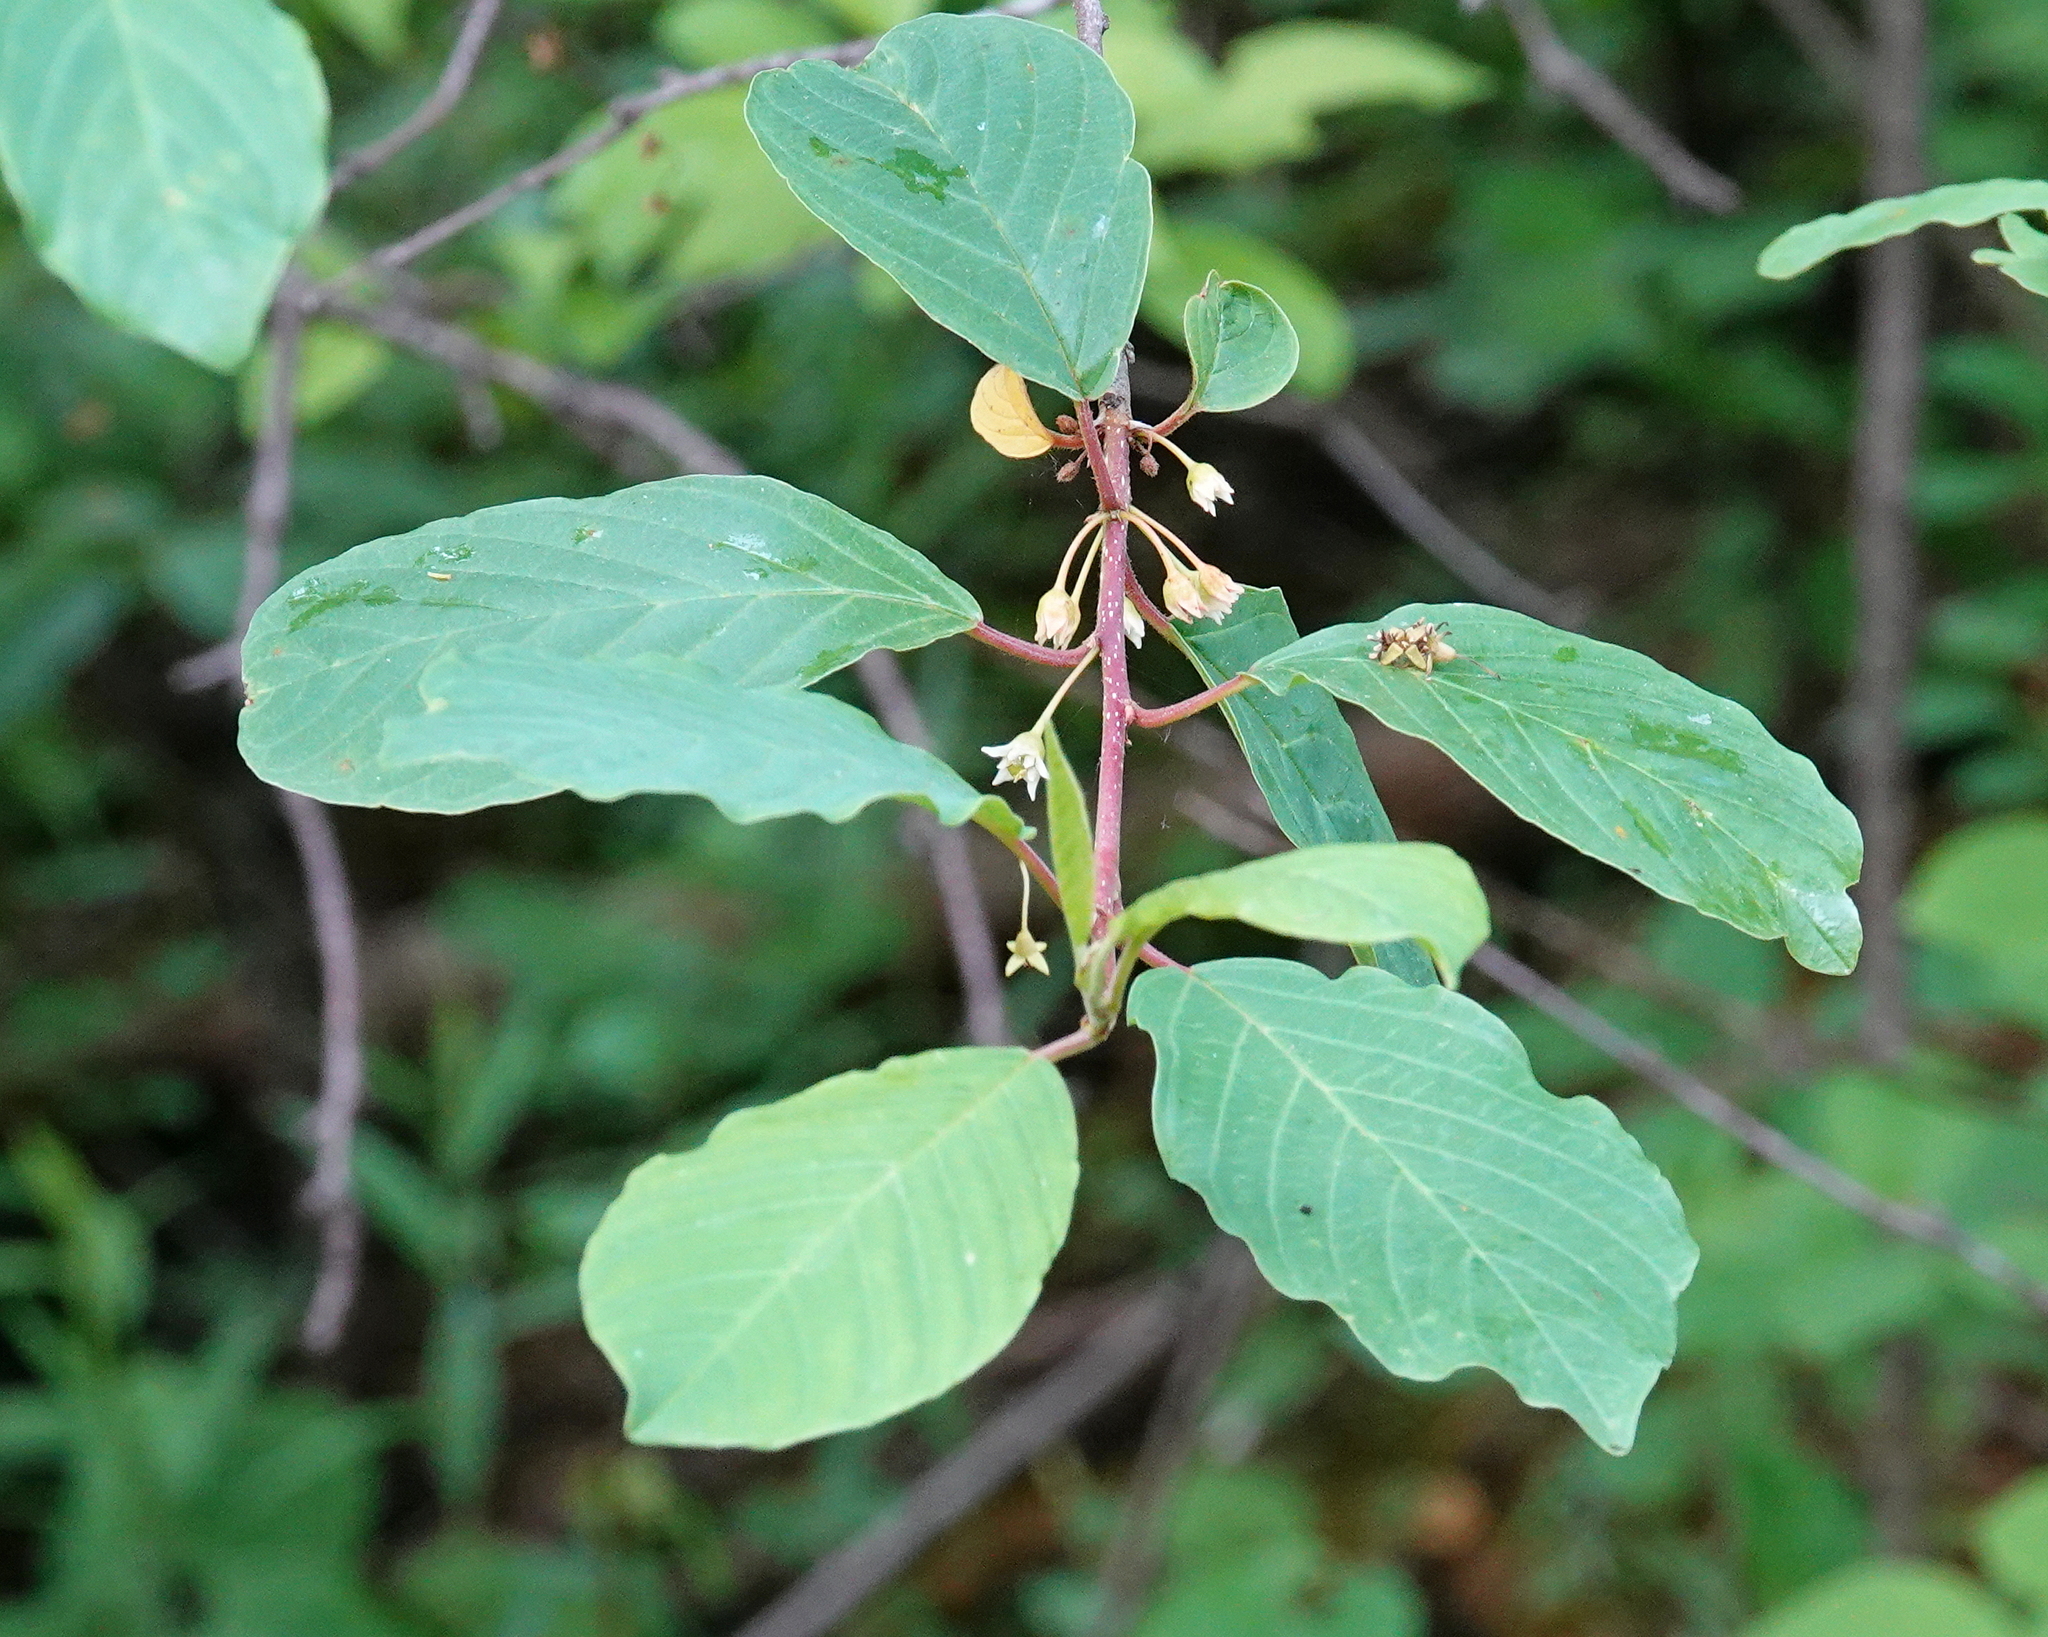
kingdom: Plantae
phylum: Tracheophyta
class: Magnoliopsida
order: Rosales
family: Rhamnaceae
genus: Frangula
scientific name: Frangula alnus
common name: Alder buckthorn
